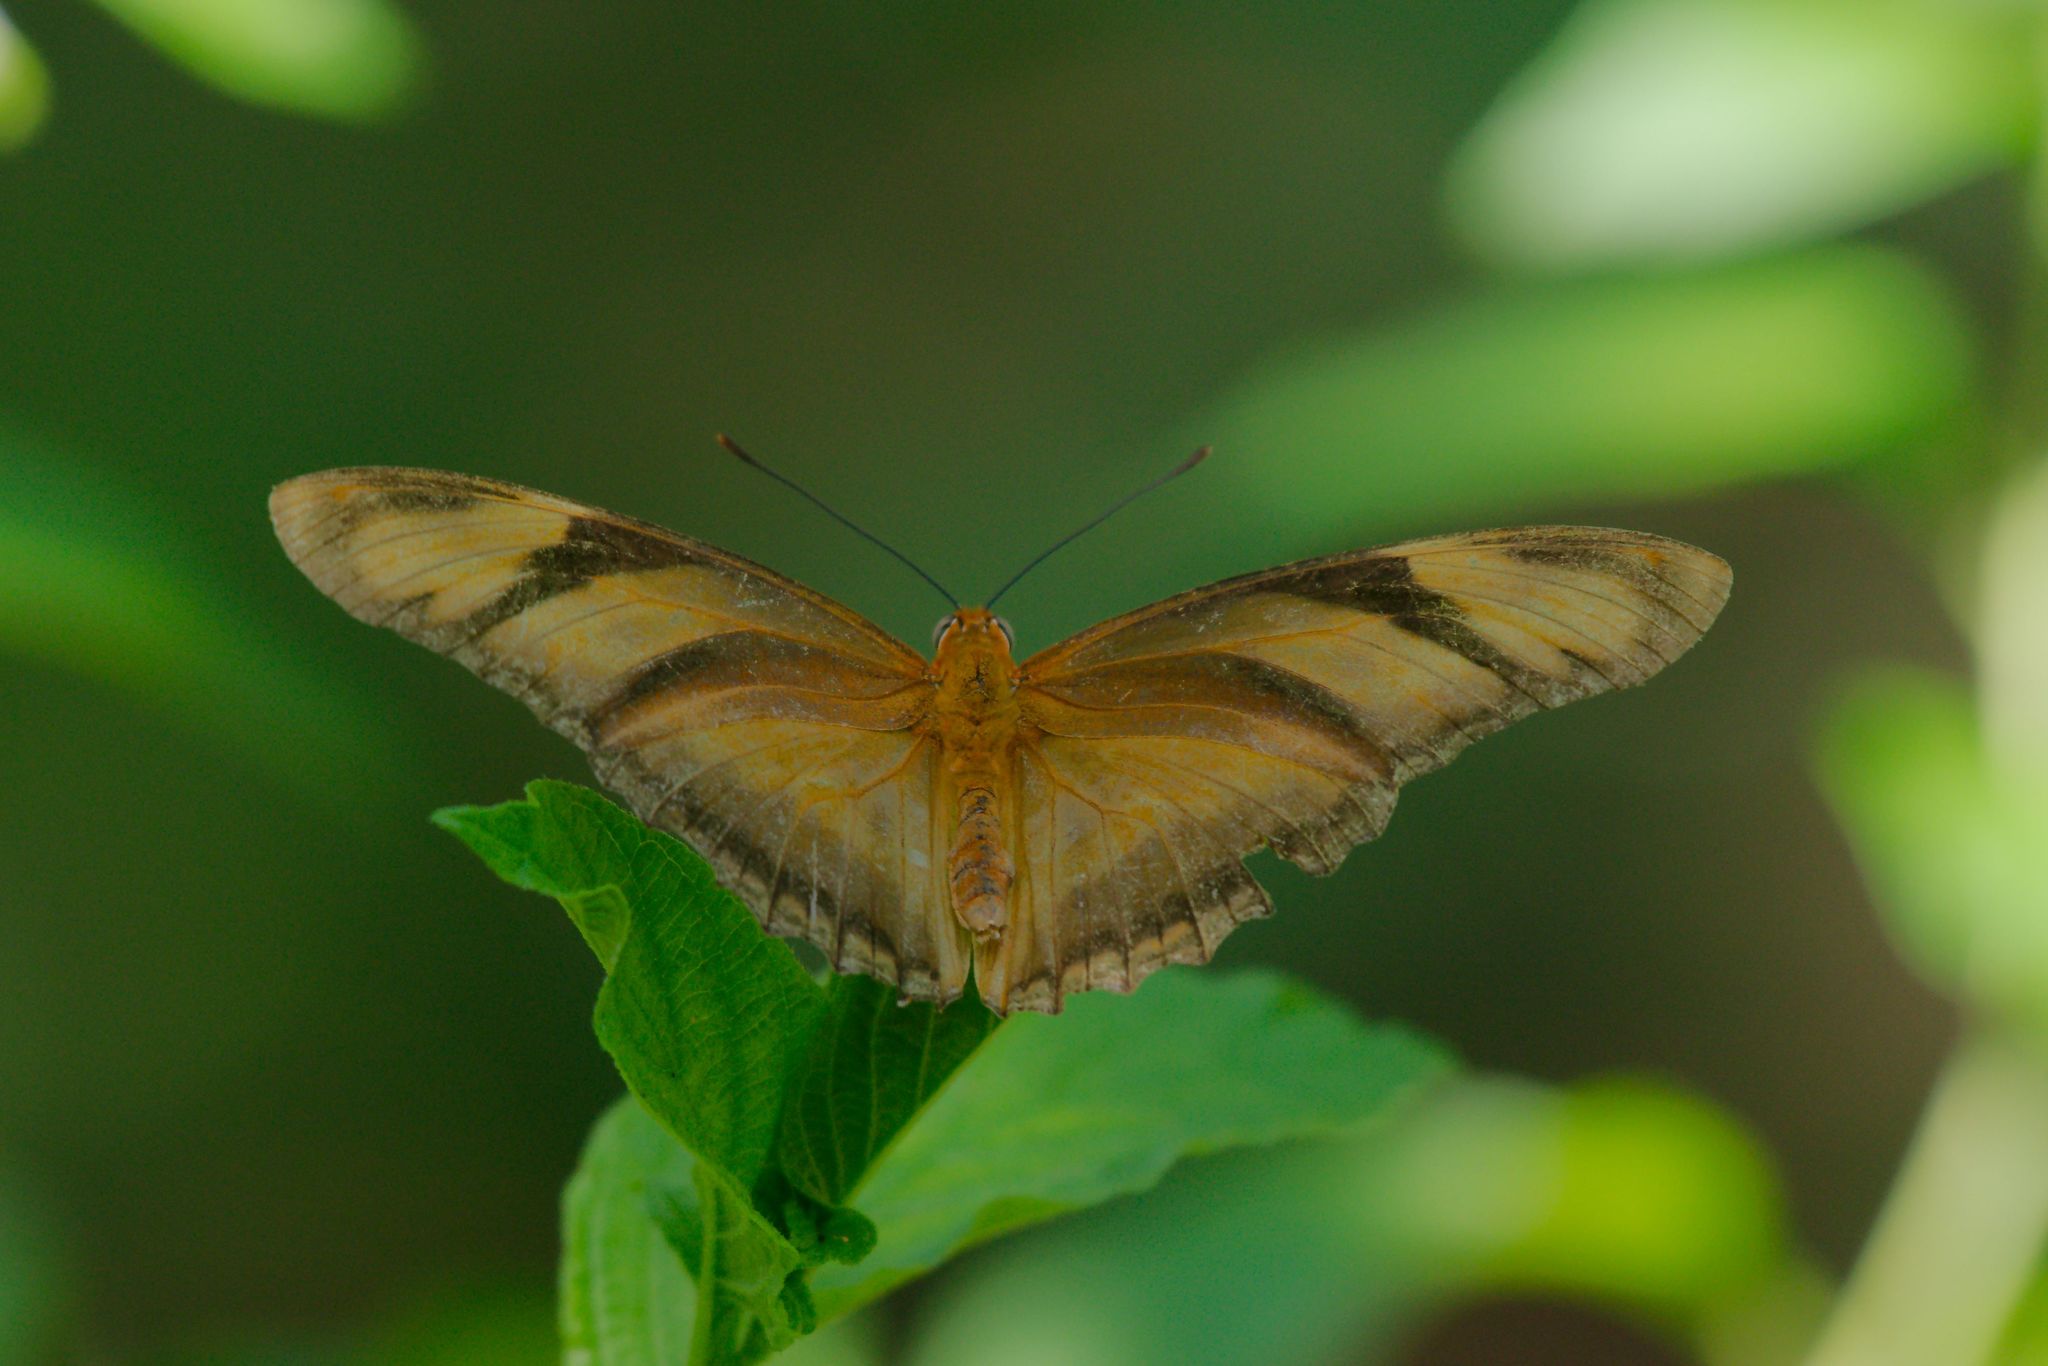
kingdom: Animalia
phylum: Arthropoda
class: Insecta
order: Lepidoptera
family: Nymphalidae
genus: Dryas
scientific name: Dryas iulia
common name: Flambeau
